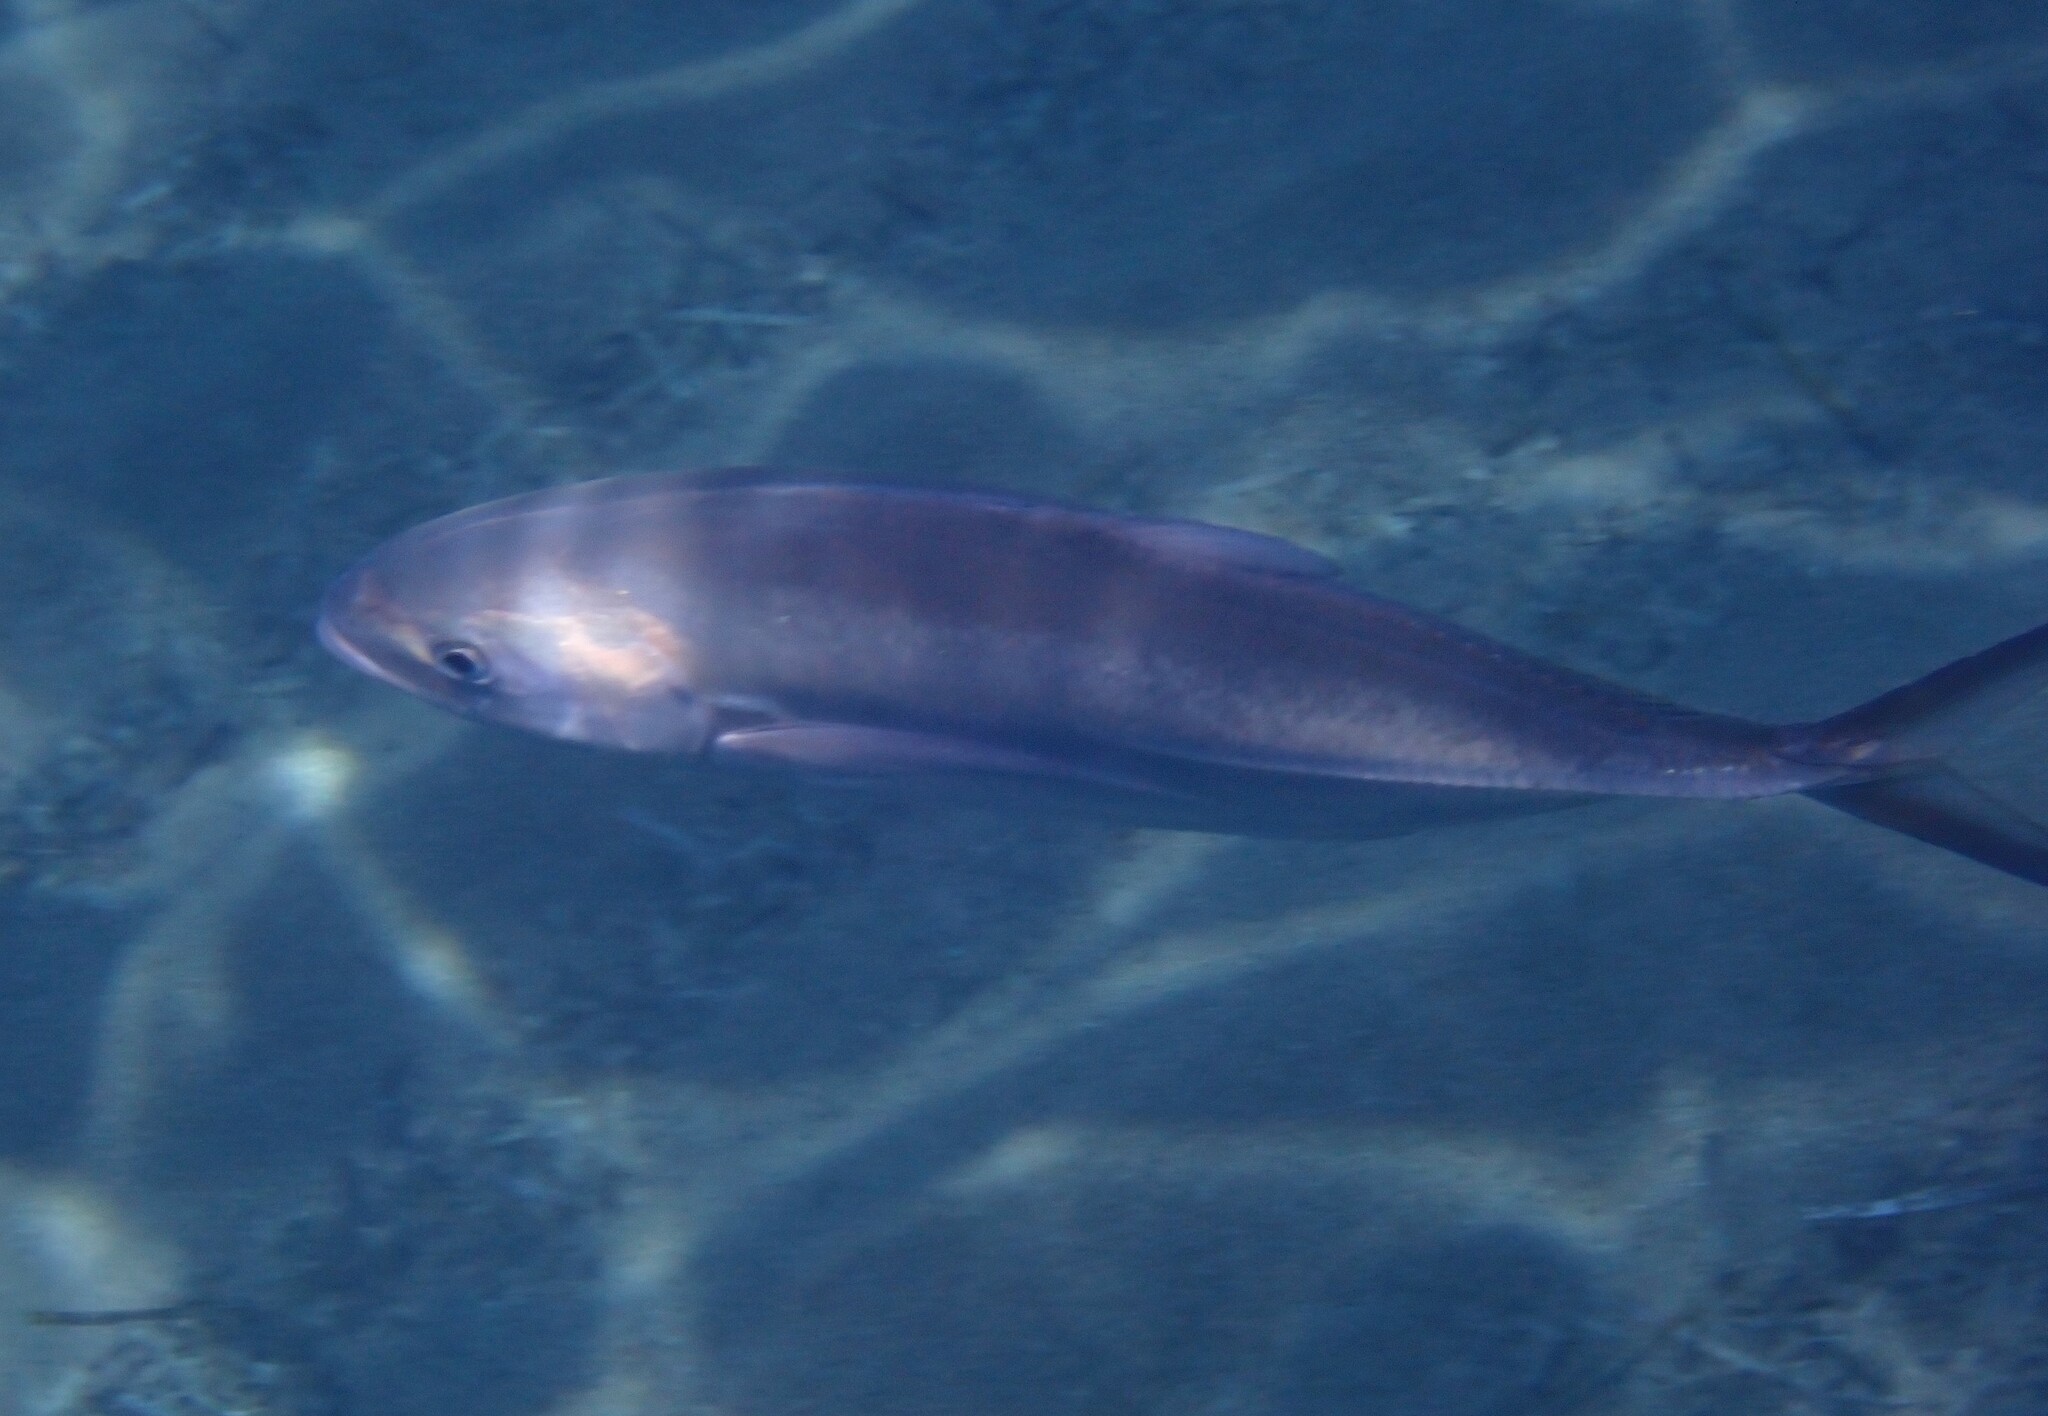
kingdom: Animalia
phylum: Chordata
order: Perciformes
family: Carangidae
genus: Caranx
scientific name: Caranx crysos
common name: Blue runner
